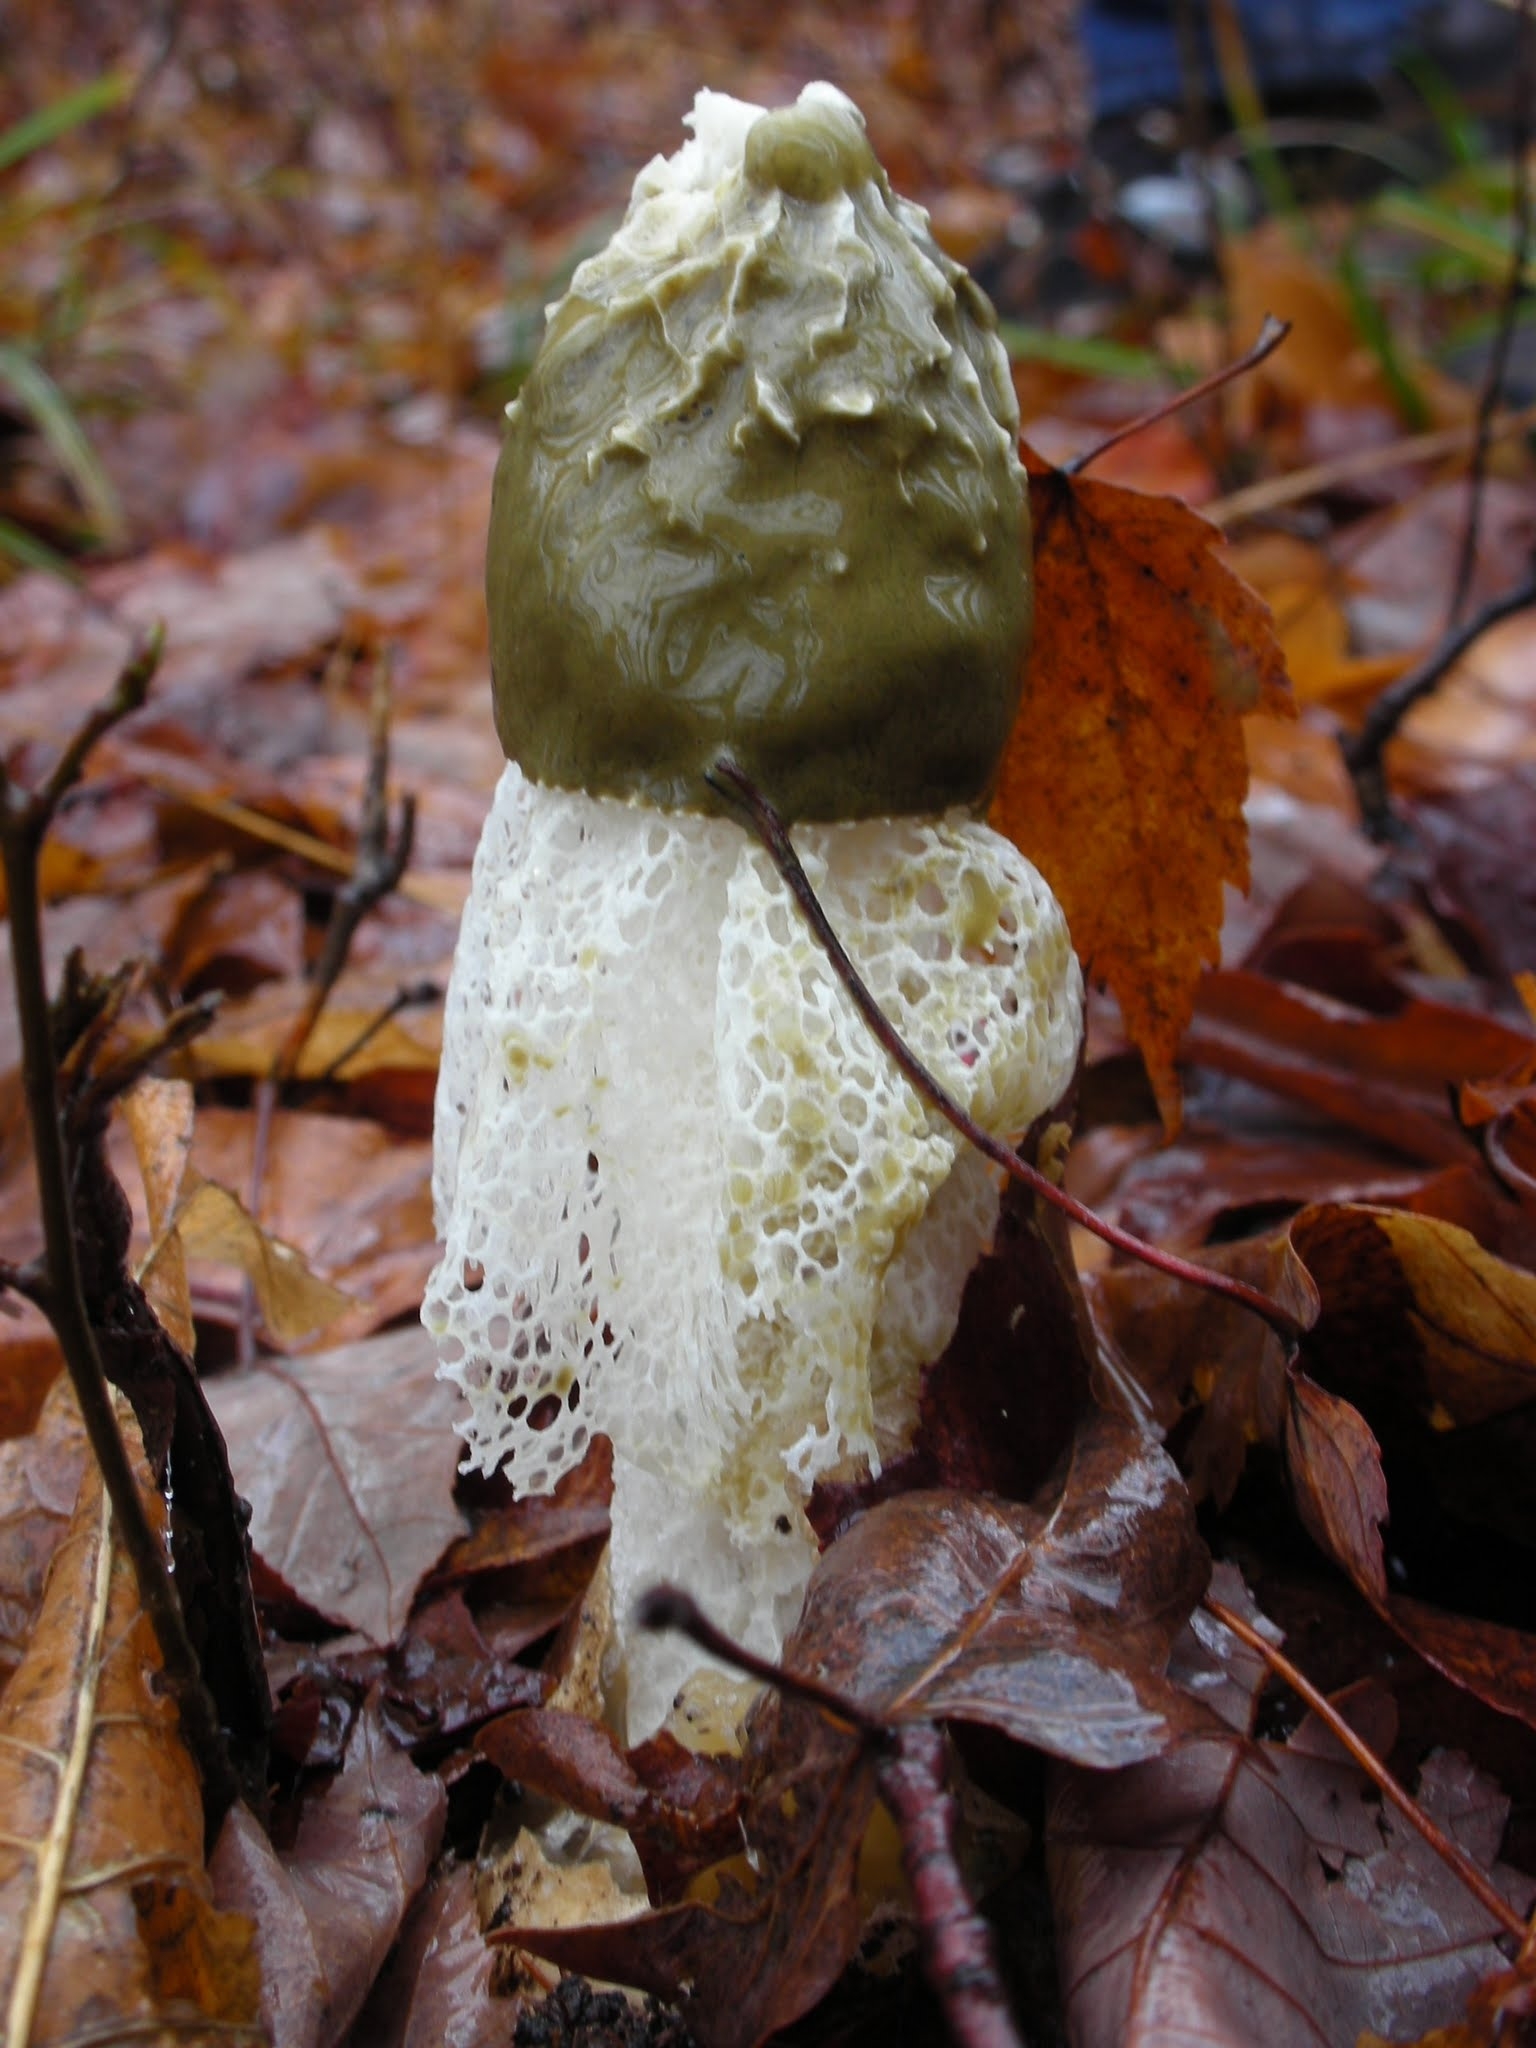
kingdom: Fungi
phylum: Basidiomycota
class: Agaricomycetes
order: Phallales
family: Phallaceae
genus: Phallus
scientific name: Phallus indusiatus
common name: Bridal veil stinkhorn
